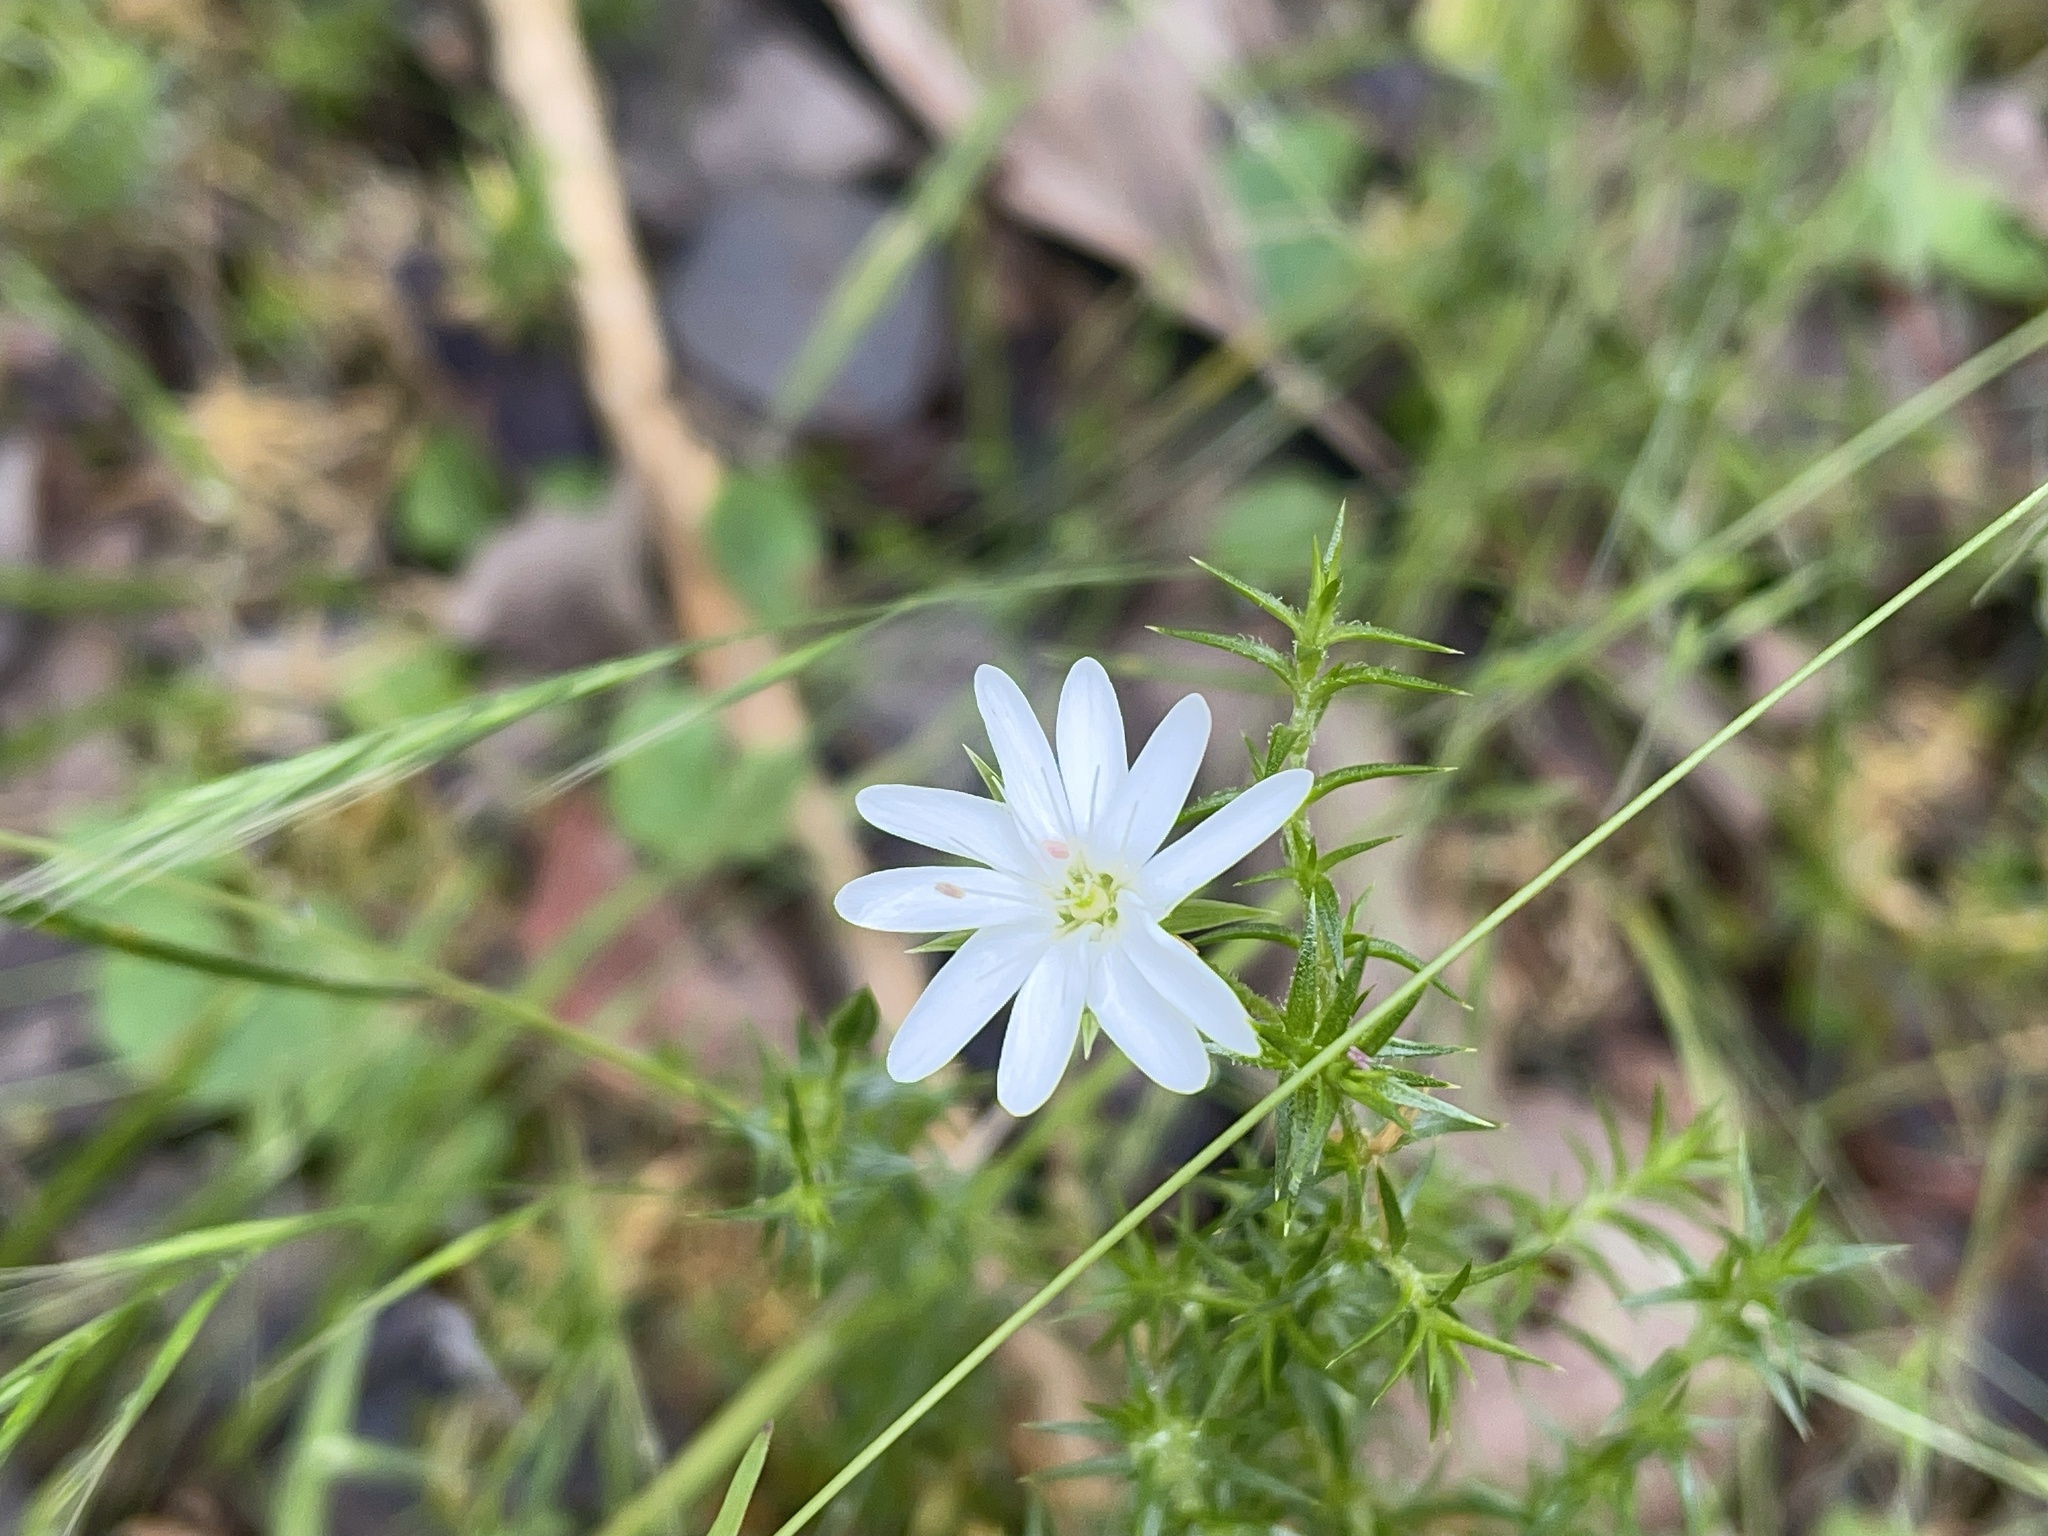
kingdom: Plantae
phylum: Tracheophyta
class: Magnoliopsida
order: Caryophyllales
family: Caryophyllaceae
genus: Stellaria
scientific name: Stellaria pungens
